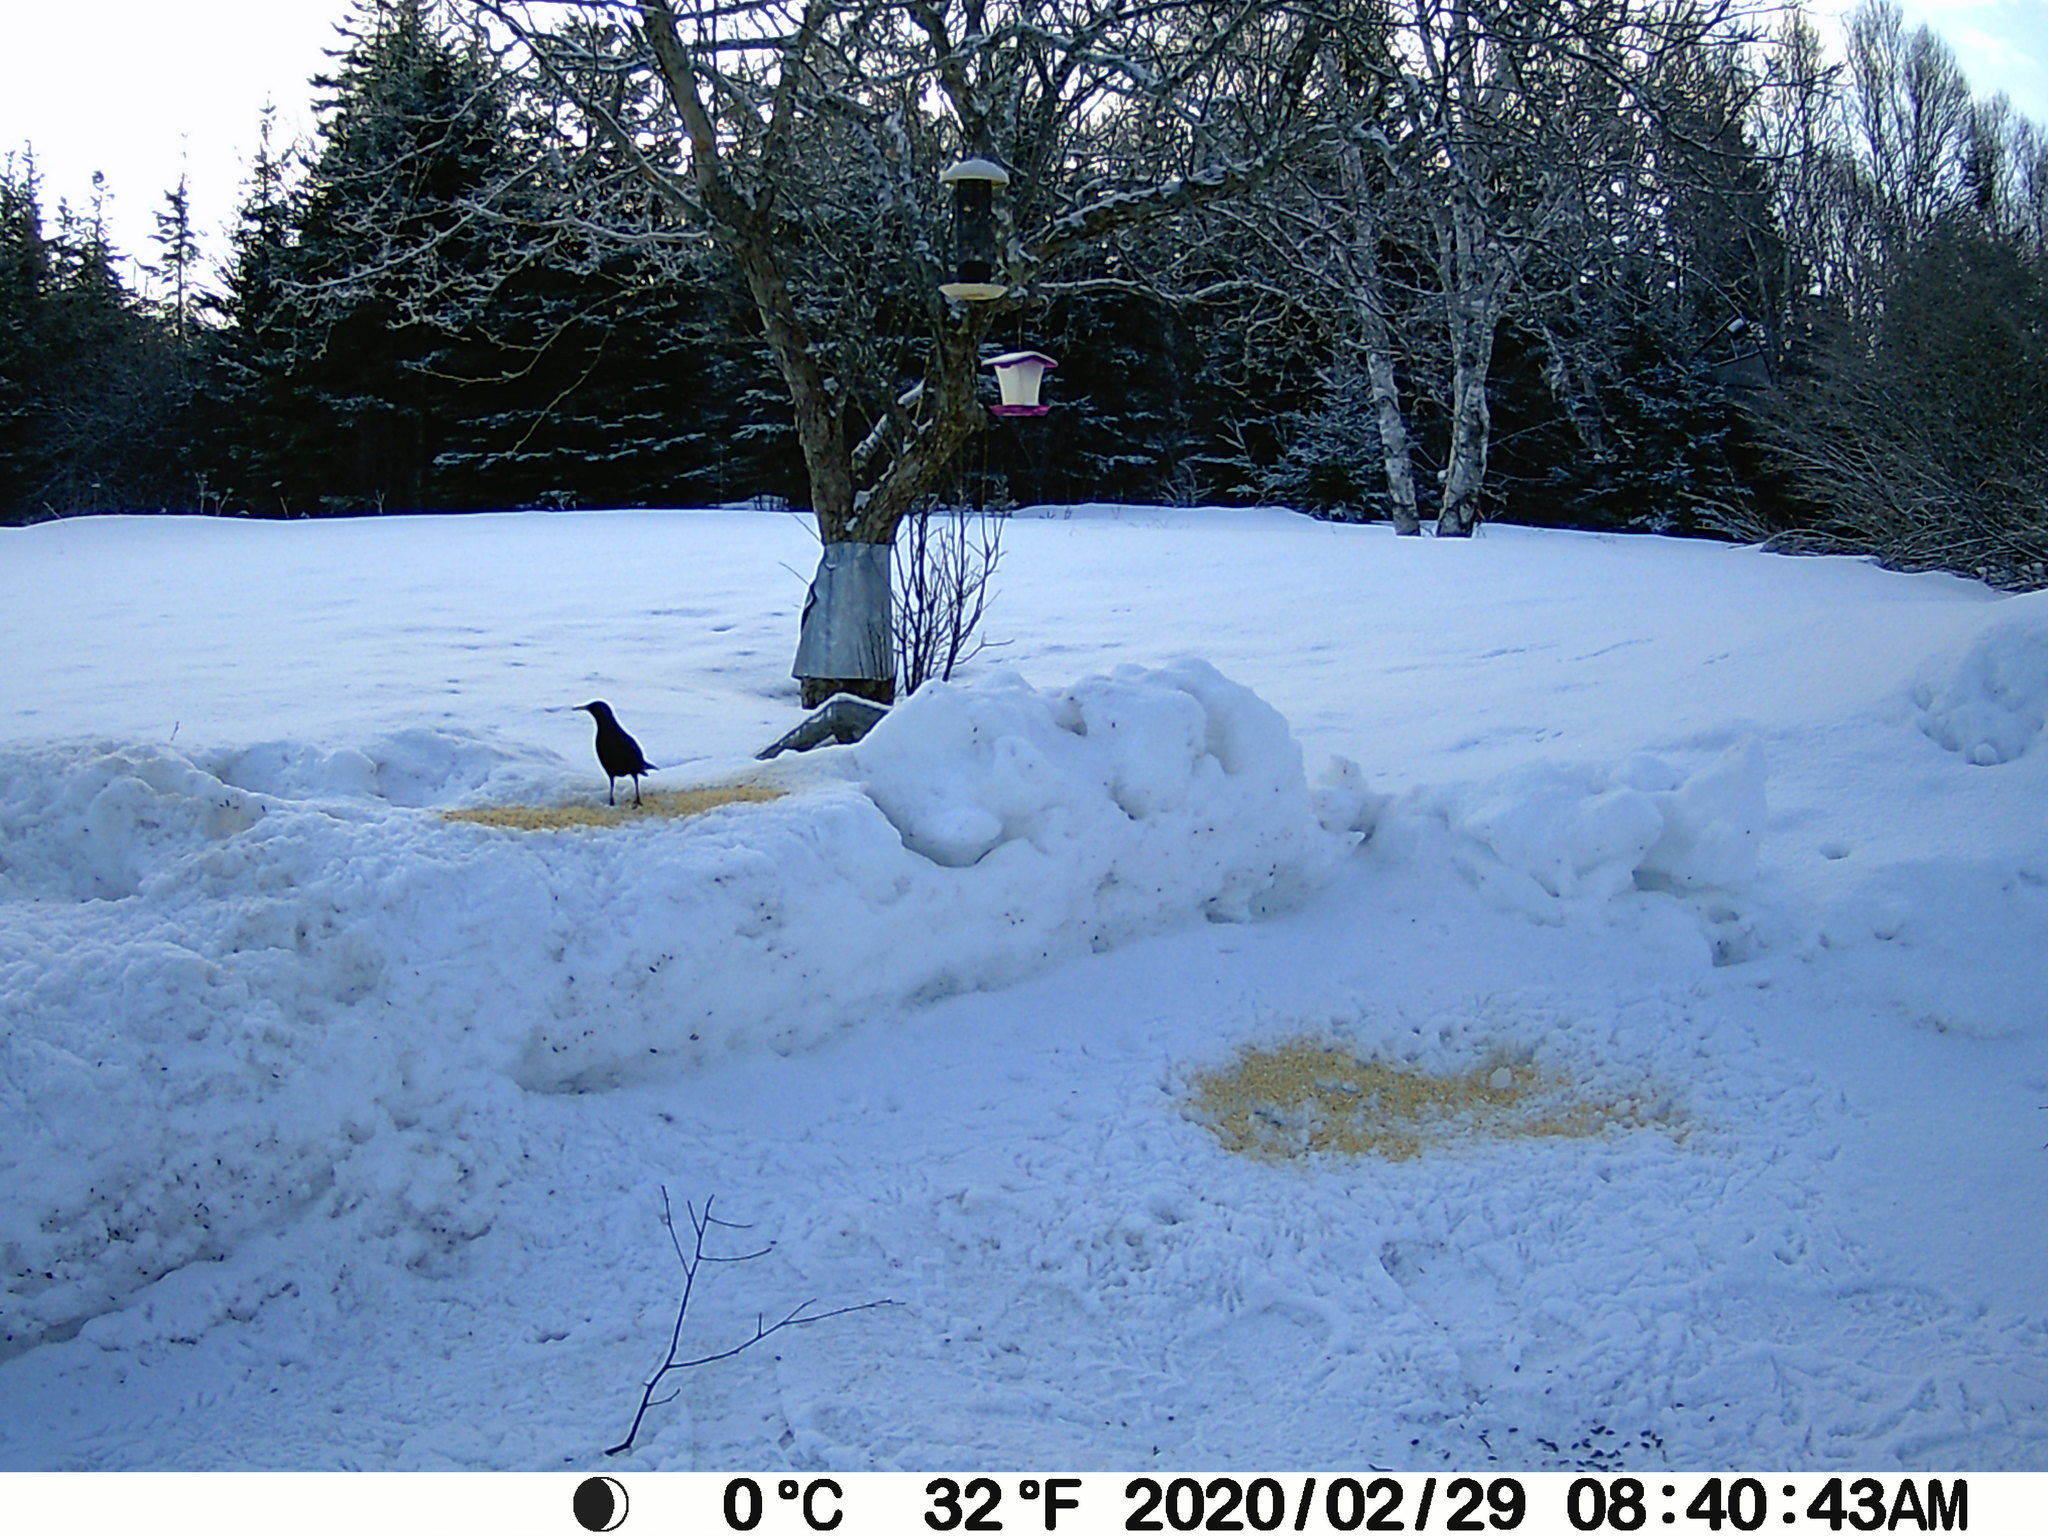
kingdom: Animalia
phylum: Chordata
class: Aves
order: Passeriformes
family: Sturnidae
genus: Sturnus
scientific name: Sturnus vulgaris
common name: Common starling
